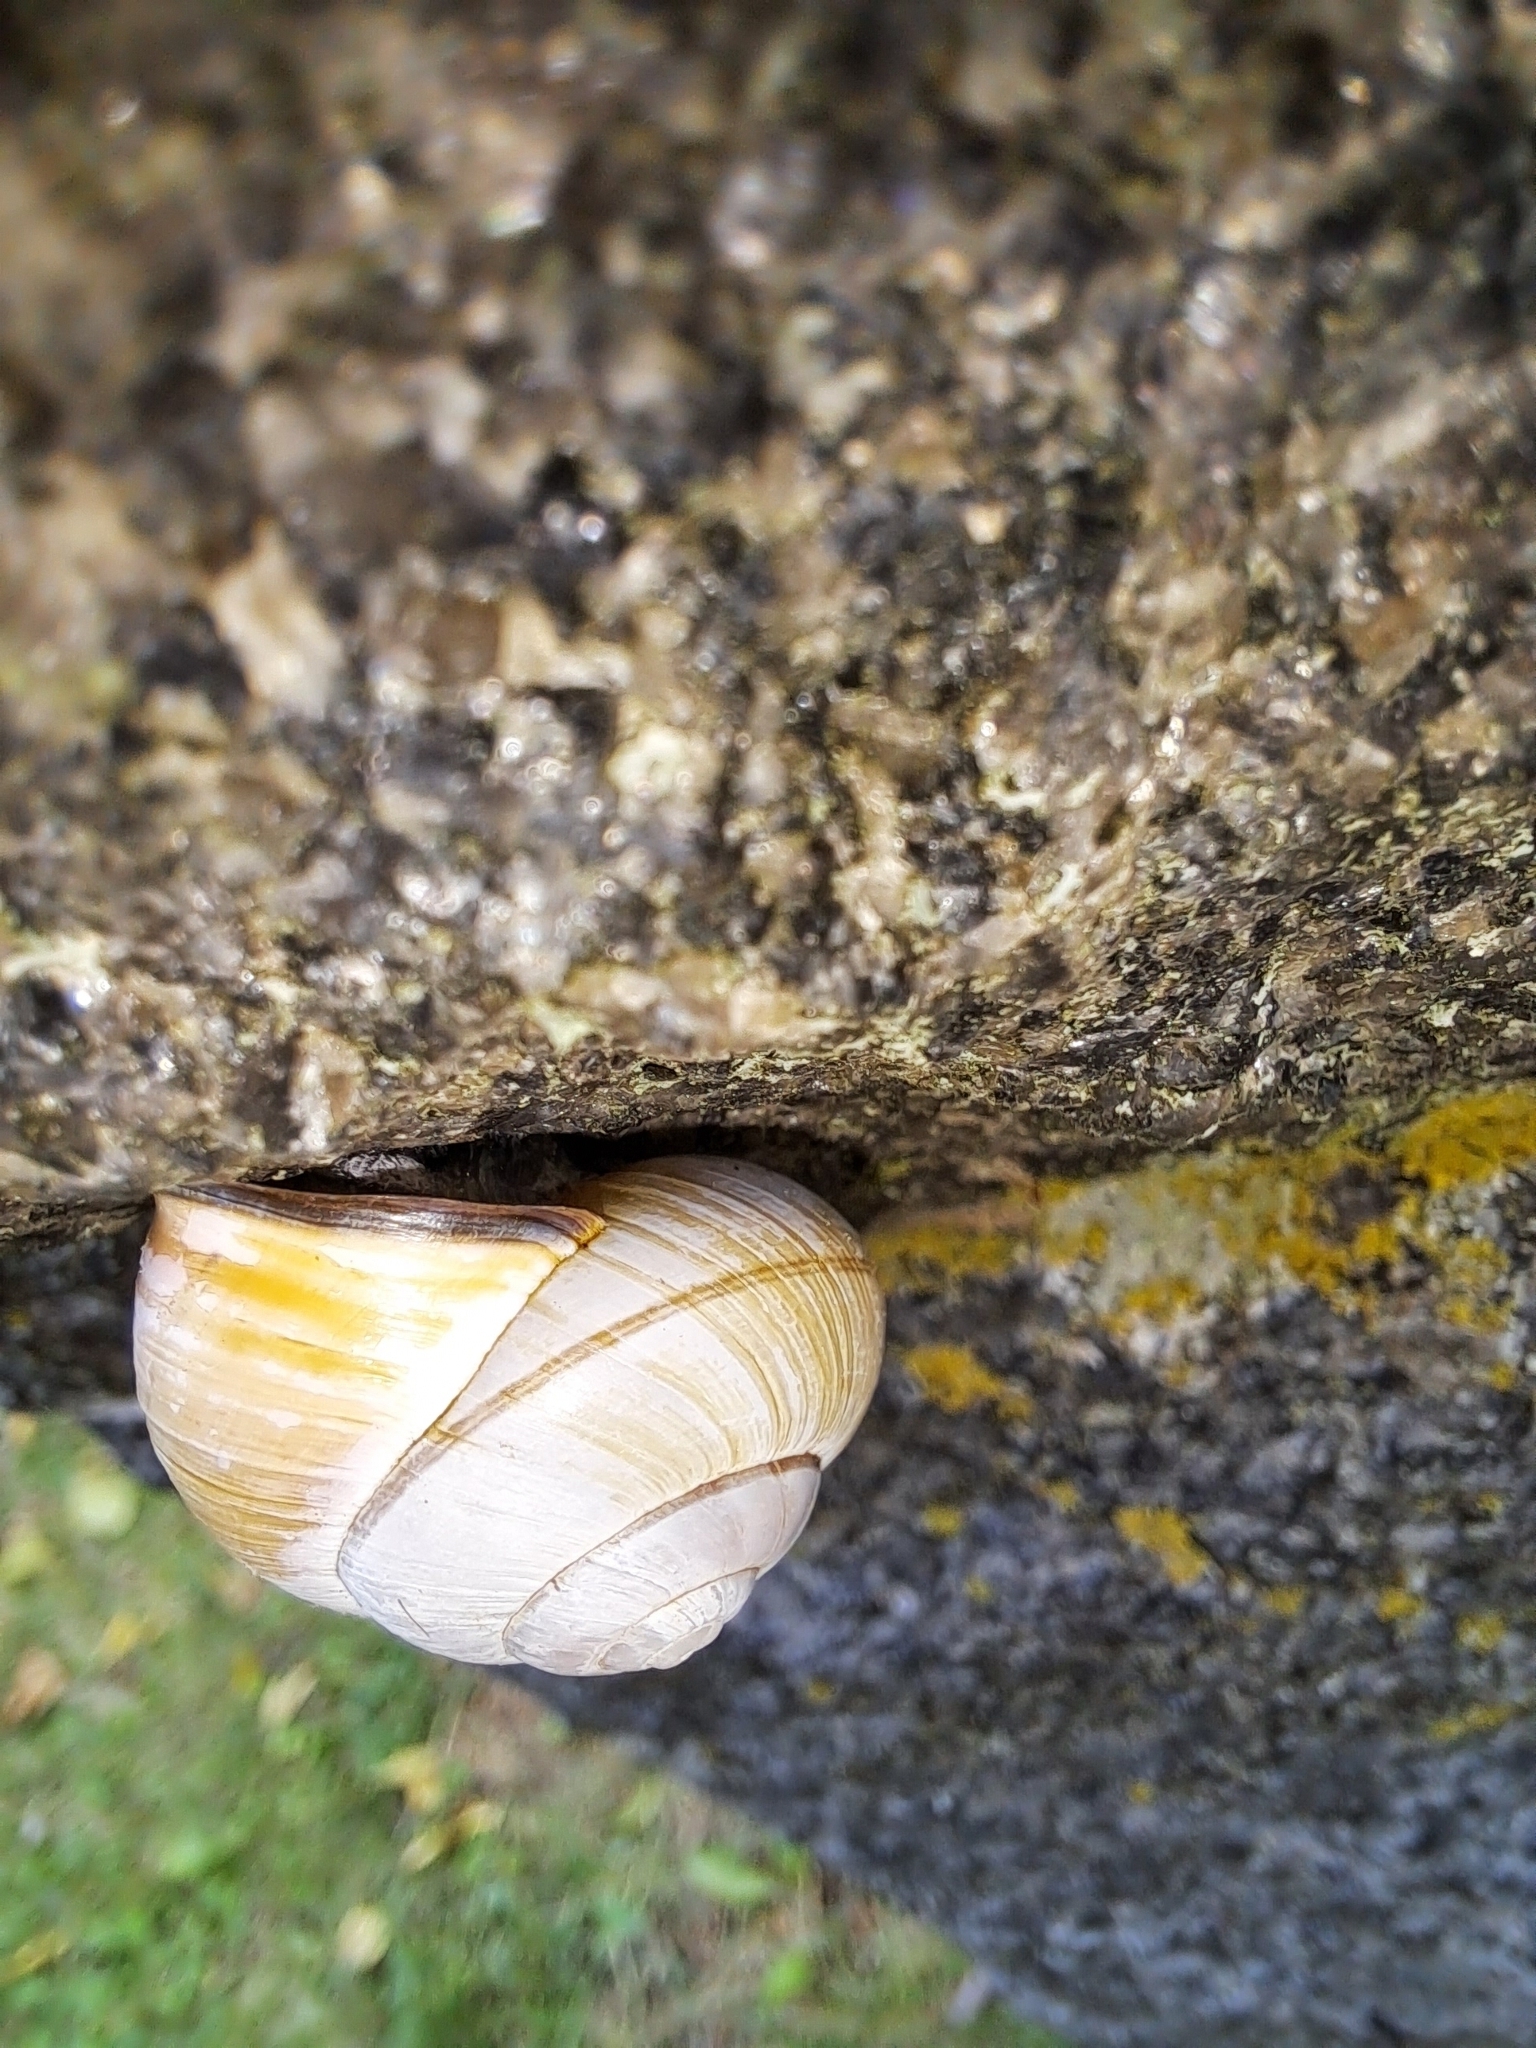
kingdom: Animalia
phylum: Mollusca
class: Gastropoda
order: Stylommatophora
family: Helicidae
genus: Cepaea
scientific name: Cepaea nemoralis
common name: Grovesnail
